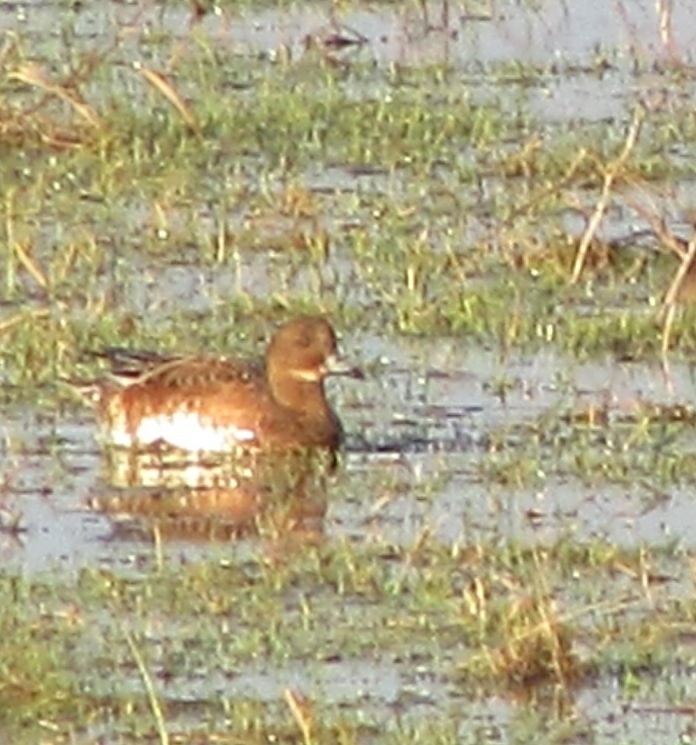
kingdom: Animalia
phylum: Chordata
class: Aves
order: Anseriformes
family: Anatidae
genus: Mareca
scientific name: Mareca penelope
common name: Eurasian wigeon
